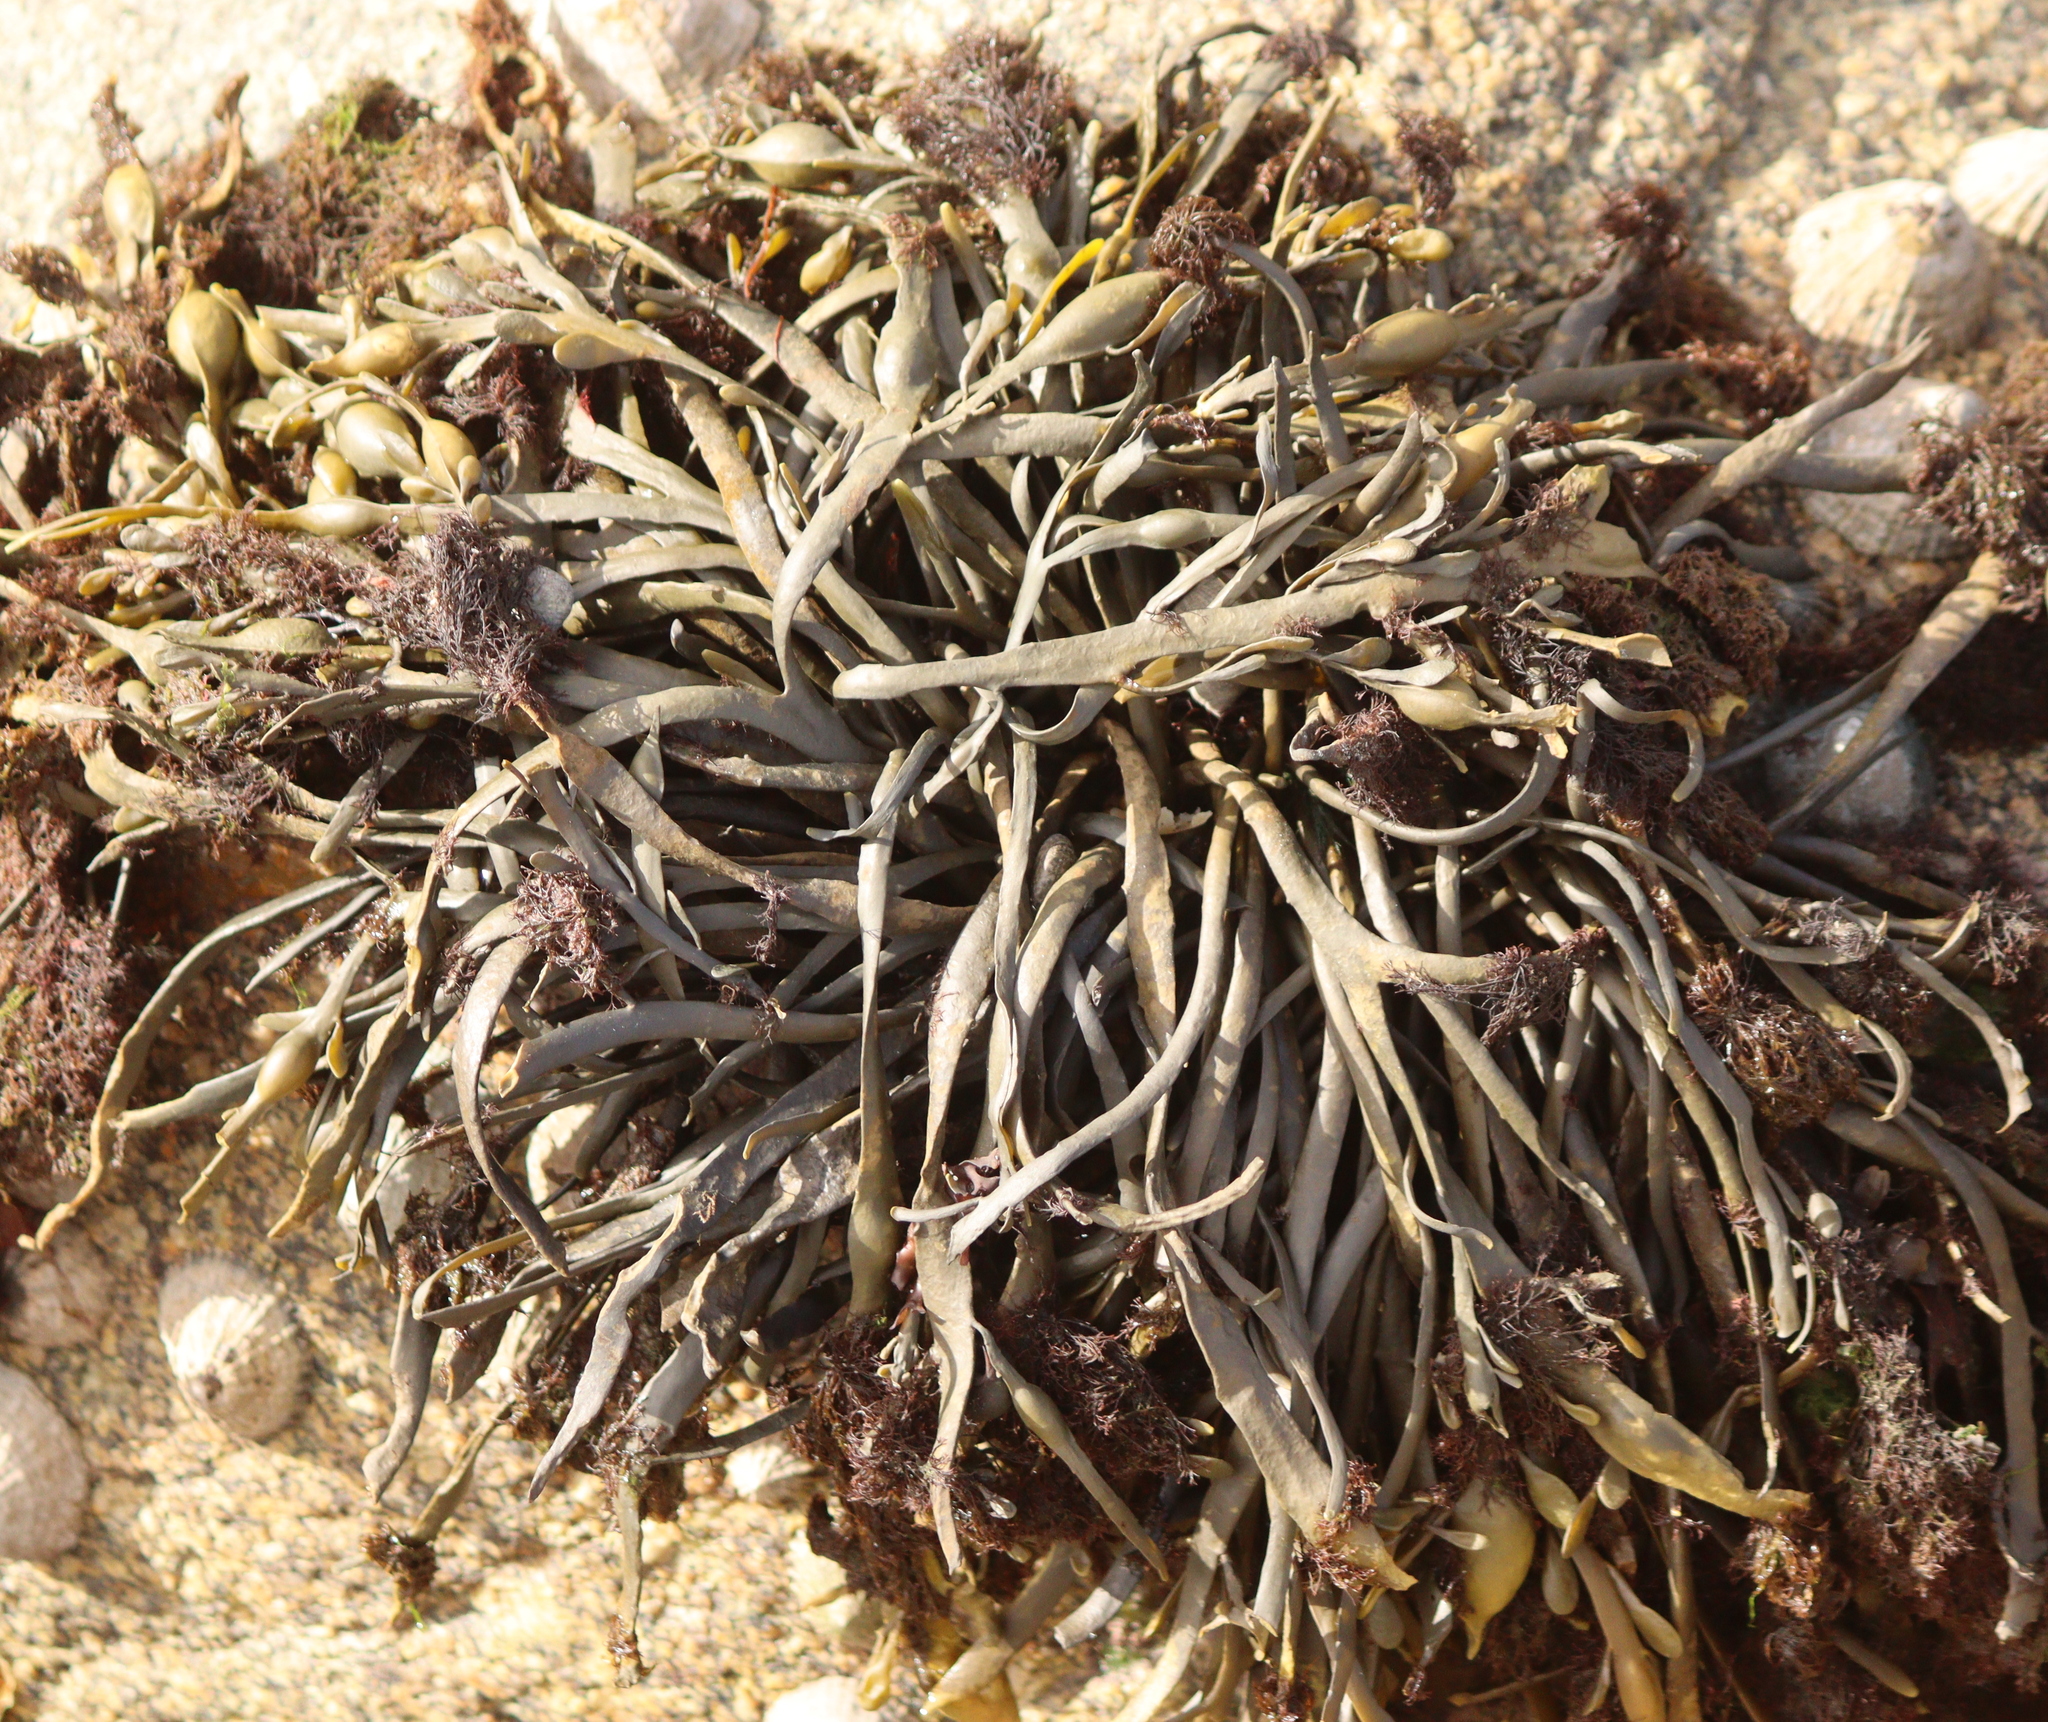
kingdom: Chromista
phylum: Ochrophyta
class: Phaeophyceae
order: Fucales
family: Fucaceae
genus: Ascophyllum
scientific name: Ascophyllum nodosum
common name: Knotted wrack
